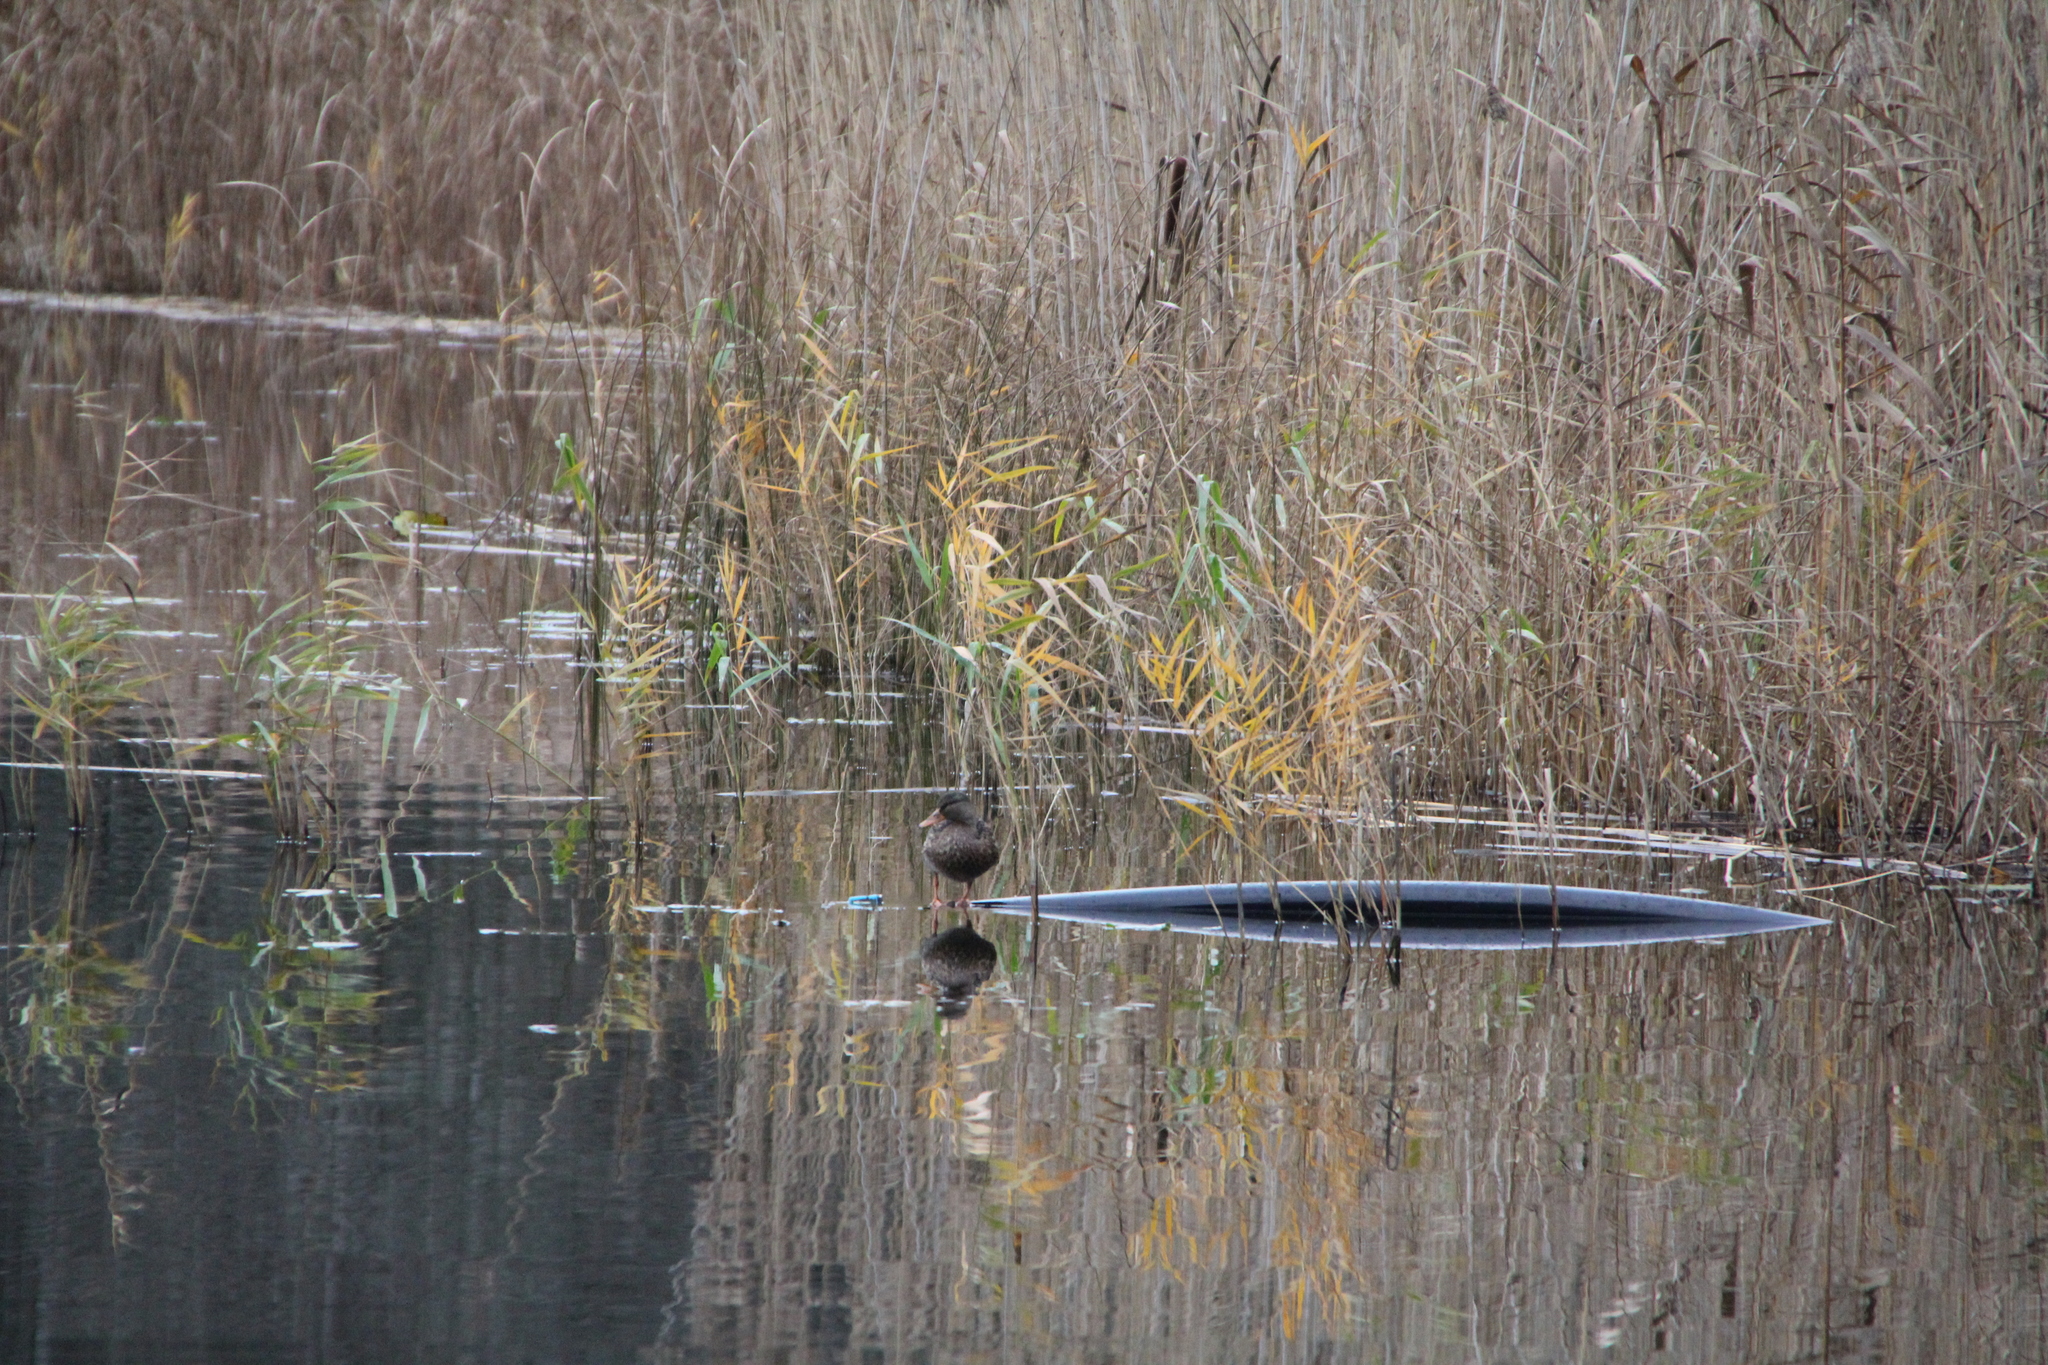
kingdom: Animalia
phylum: Chordata
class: Aves
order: Anseriformes
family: Anatidae
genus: Anas
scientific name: Anas platyrhynchos
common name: Mallard
